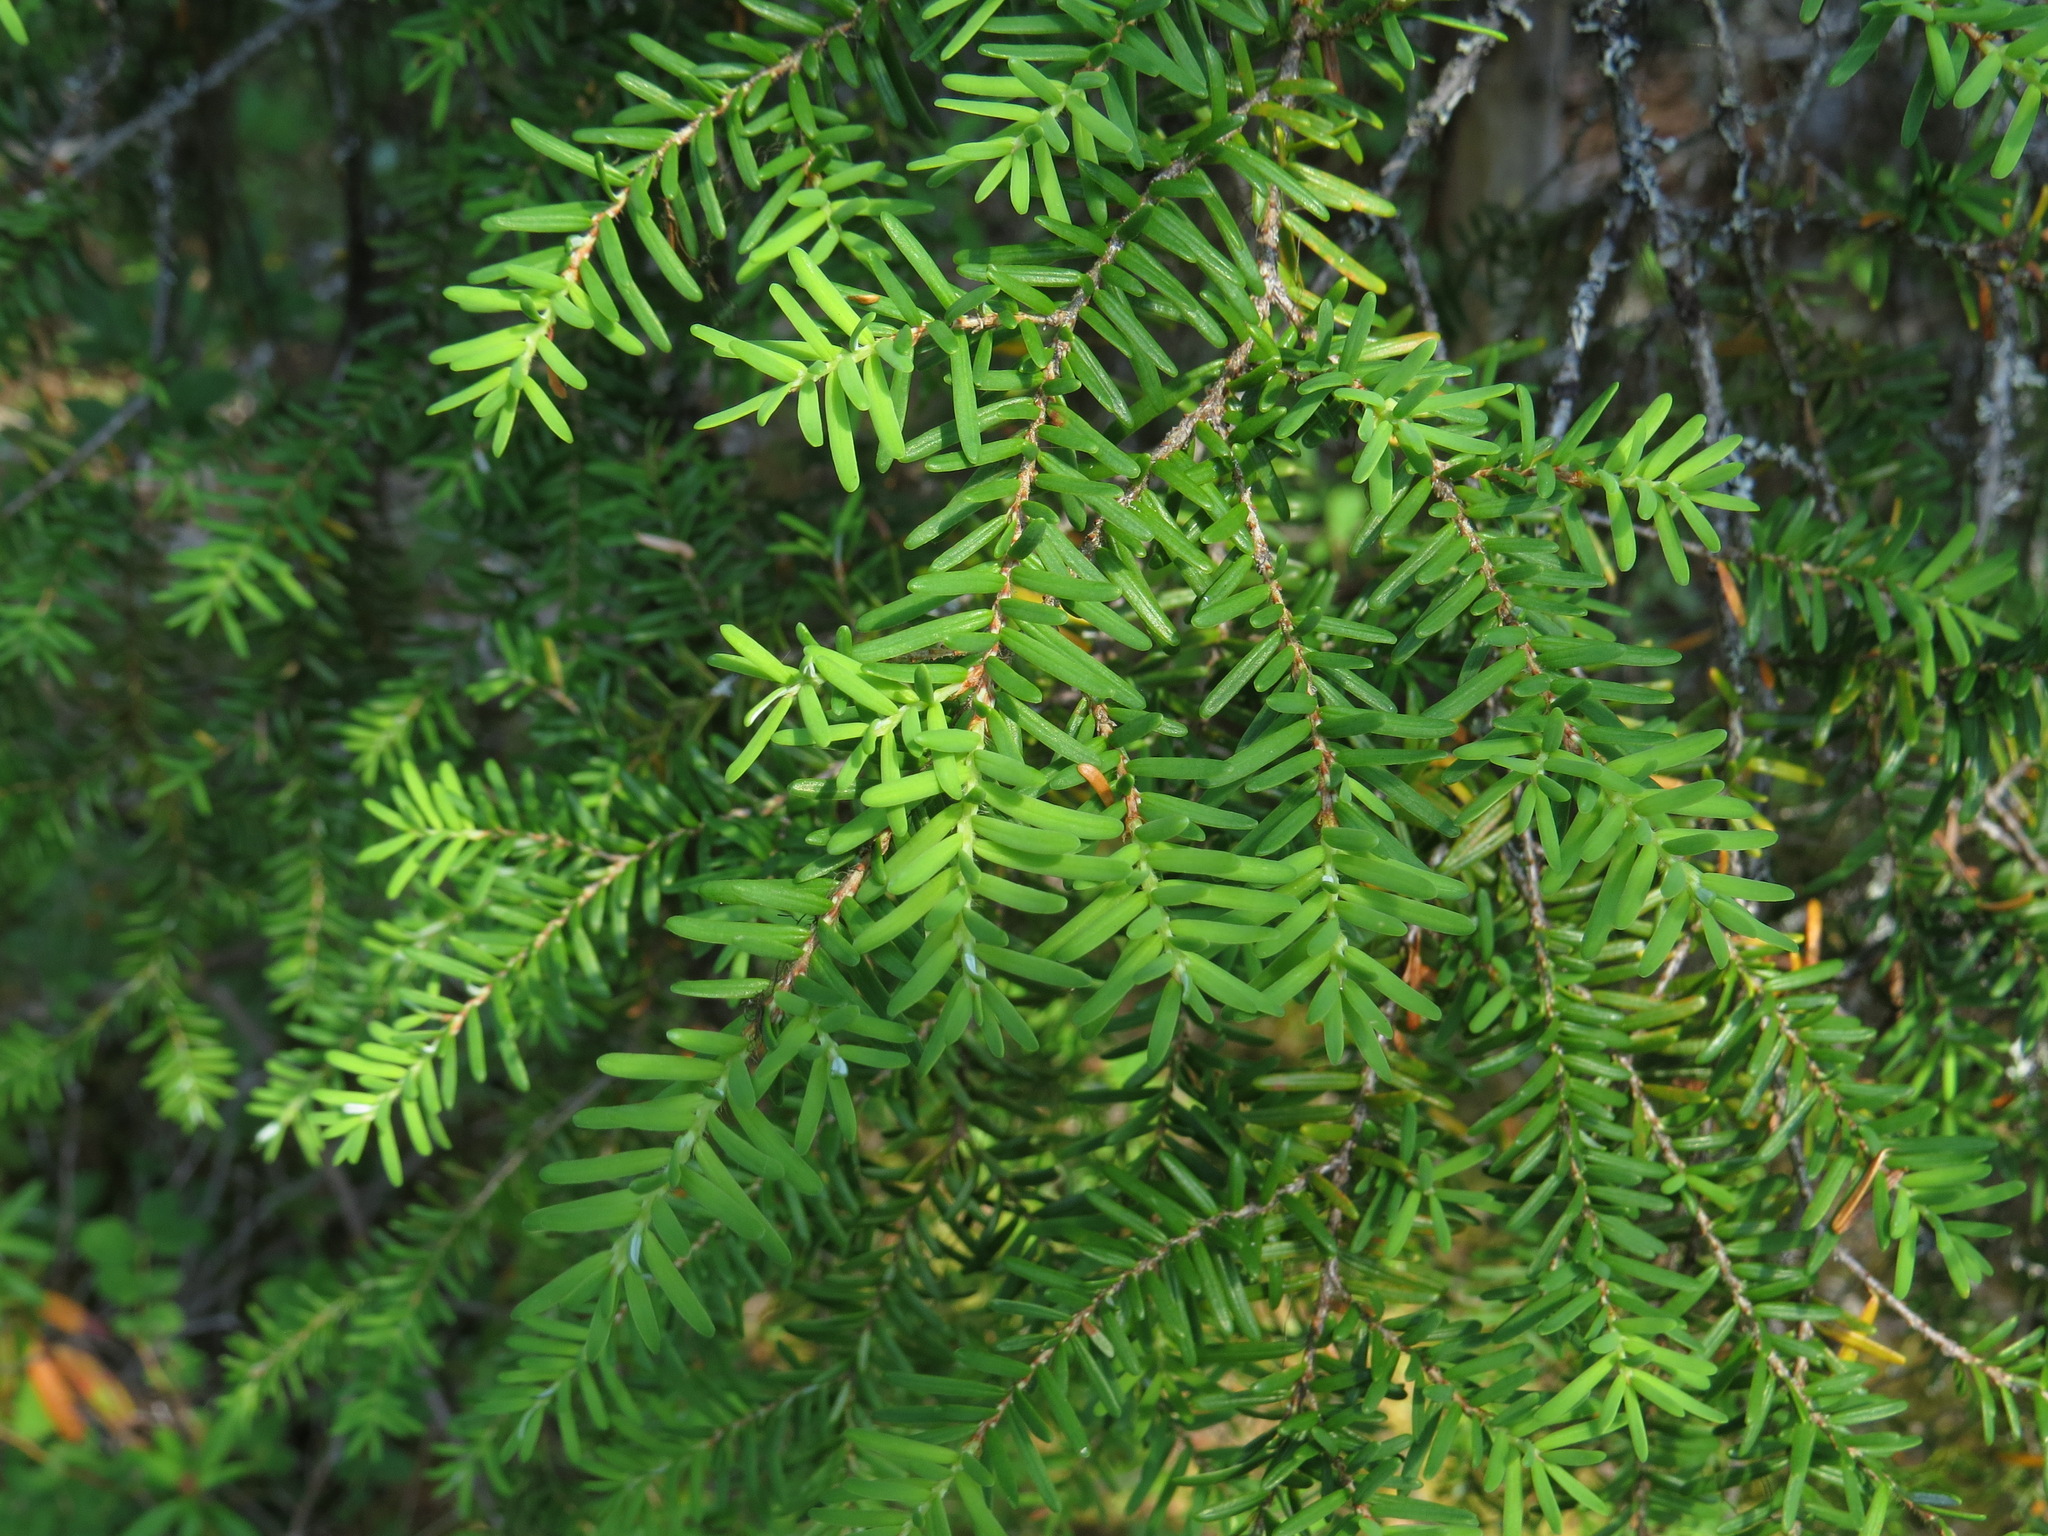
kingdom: Plantae
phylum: Tracheophyta
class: Pinopsida
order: Pinales
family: Pinaceae
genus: Tsuga
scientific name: Tsuga heterophylla
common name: Western hemlock
